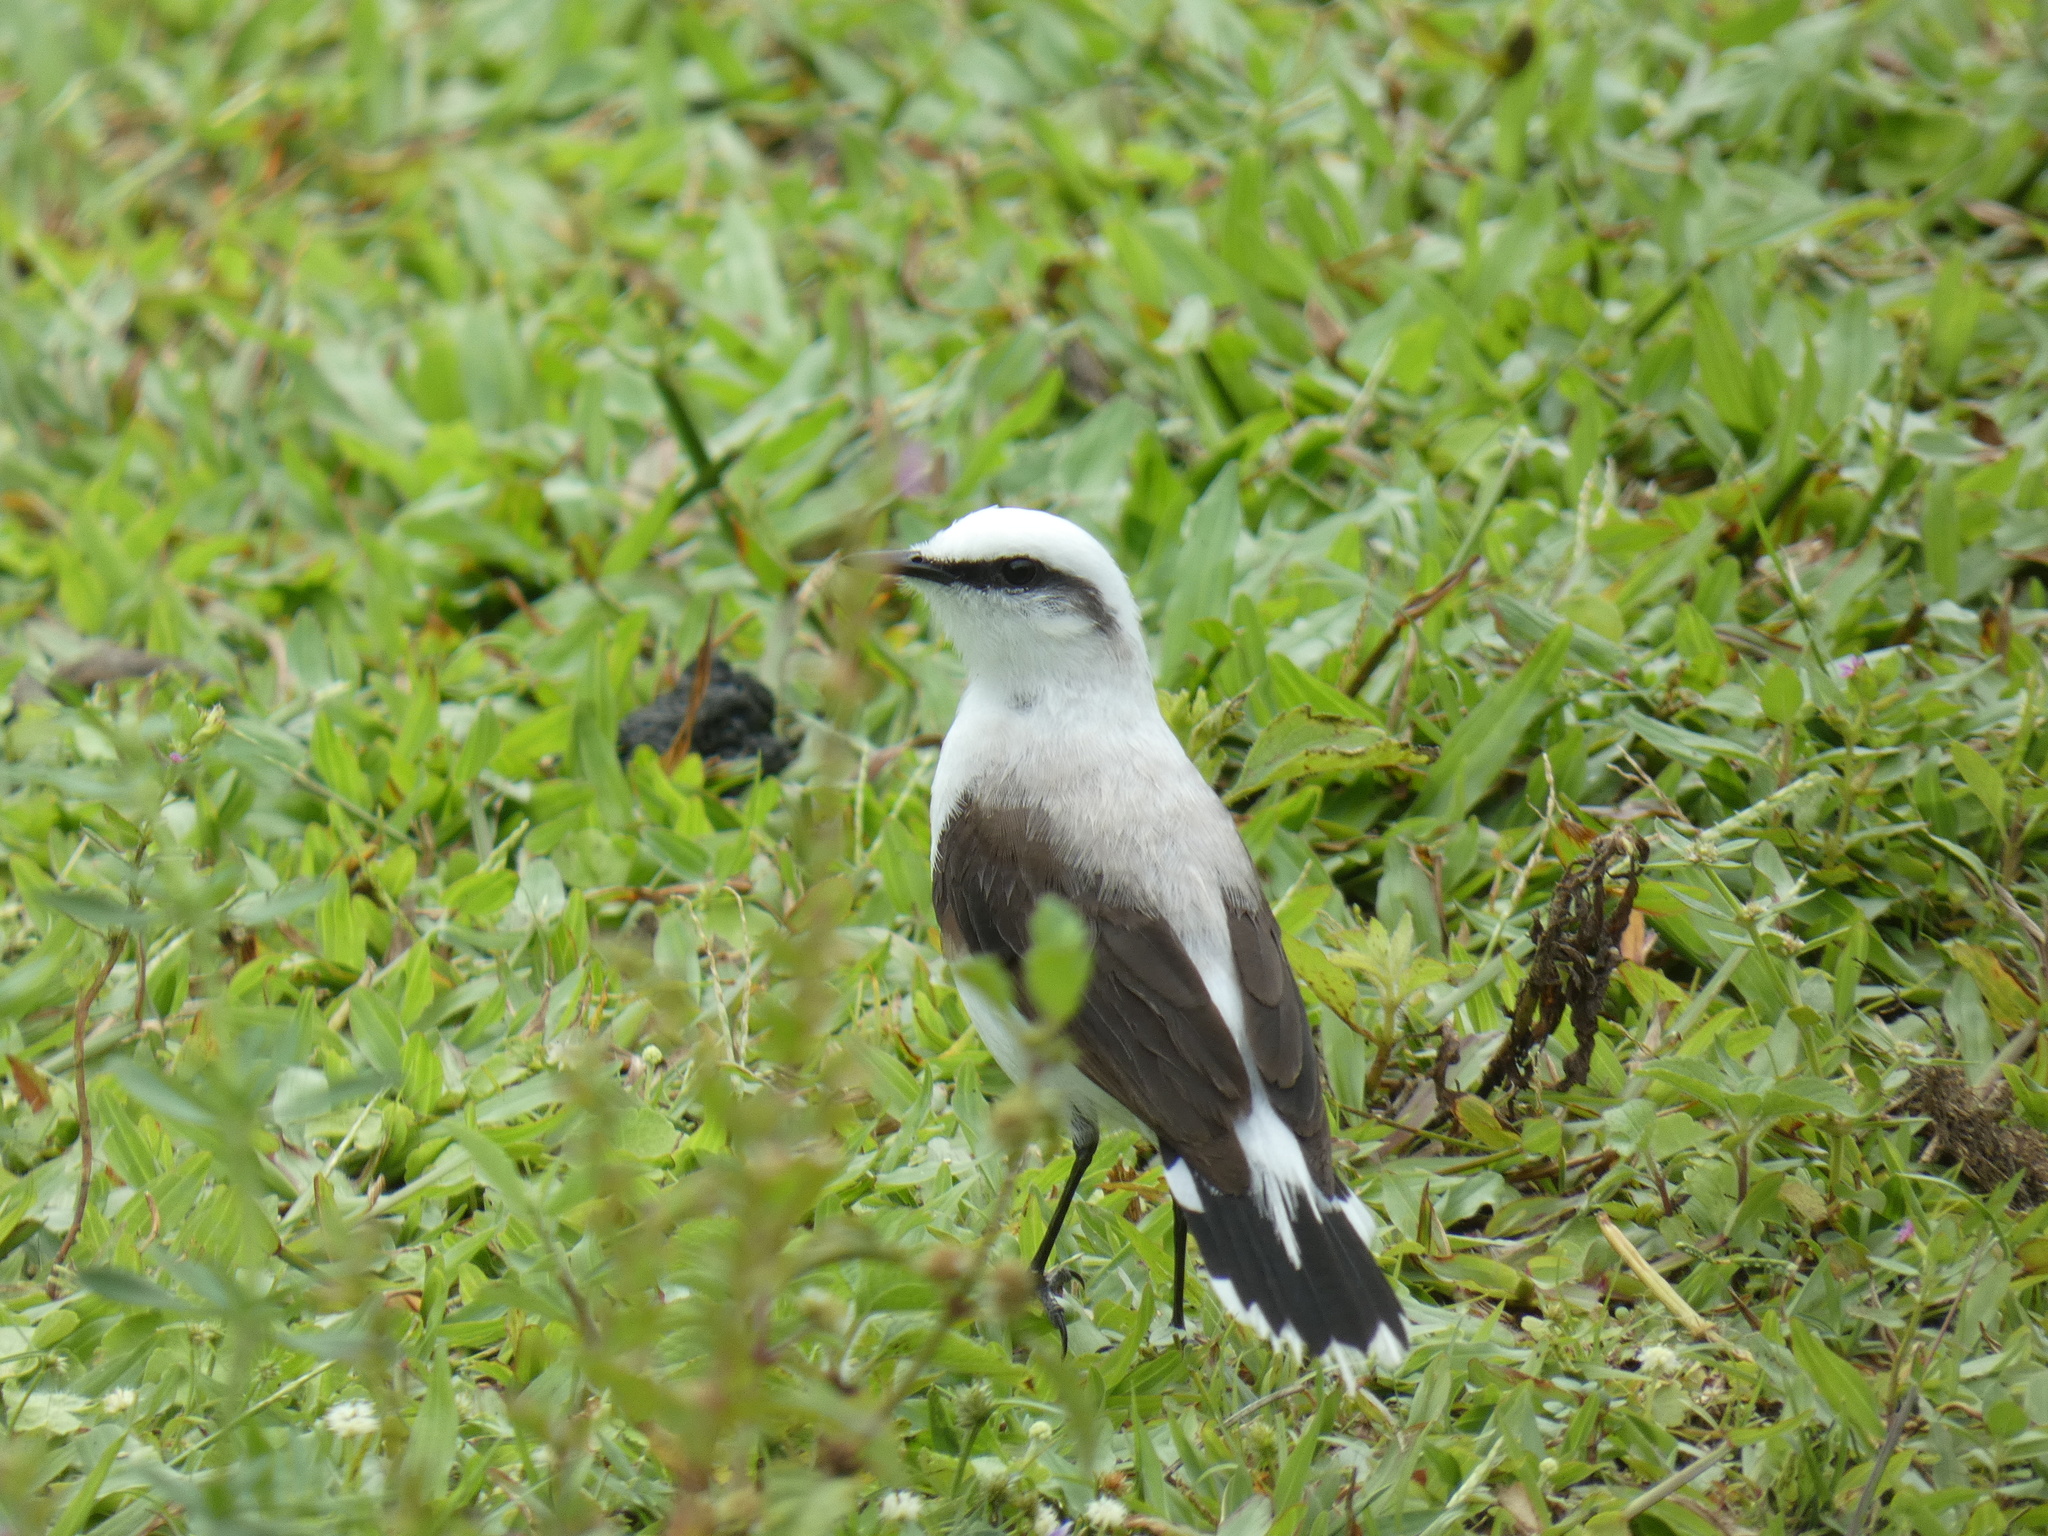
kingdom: Animalia
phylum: Chordata
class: Aves
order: Passeriformes
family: Tyrannidae
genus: Fluvicola
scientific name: Fluvicola nengeta
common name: Masked water tyrant
